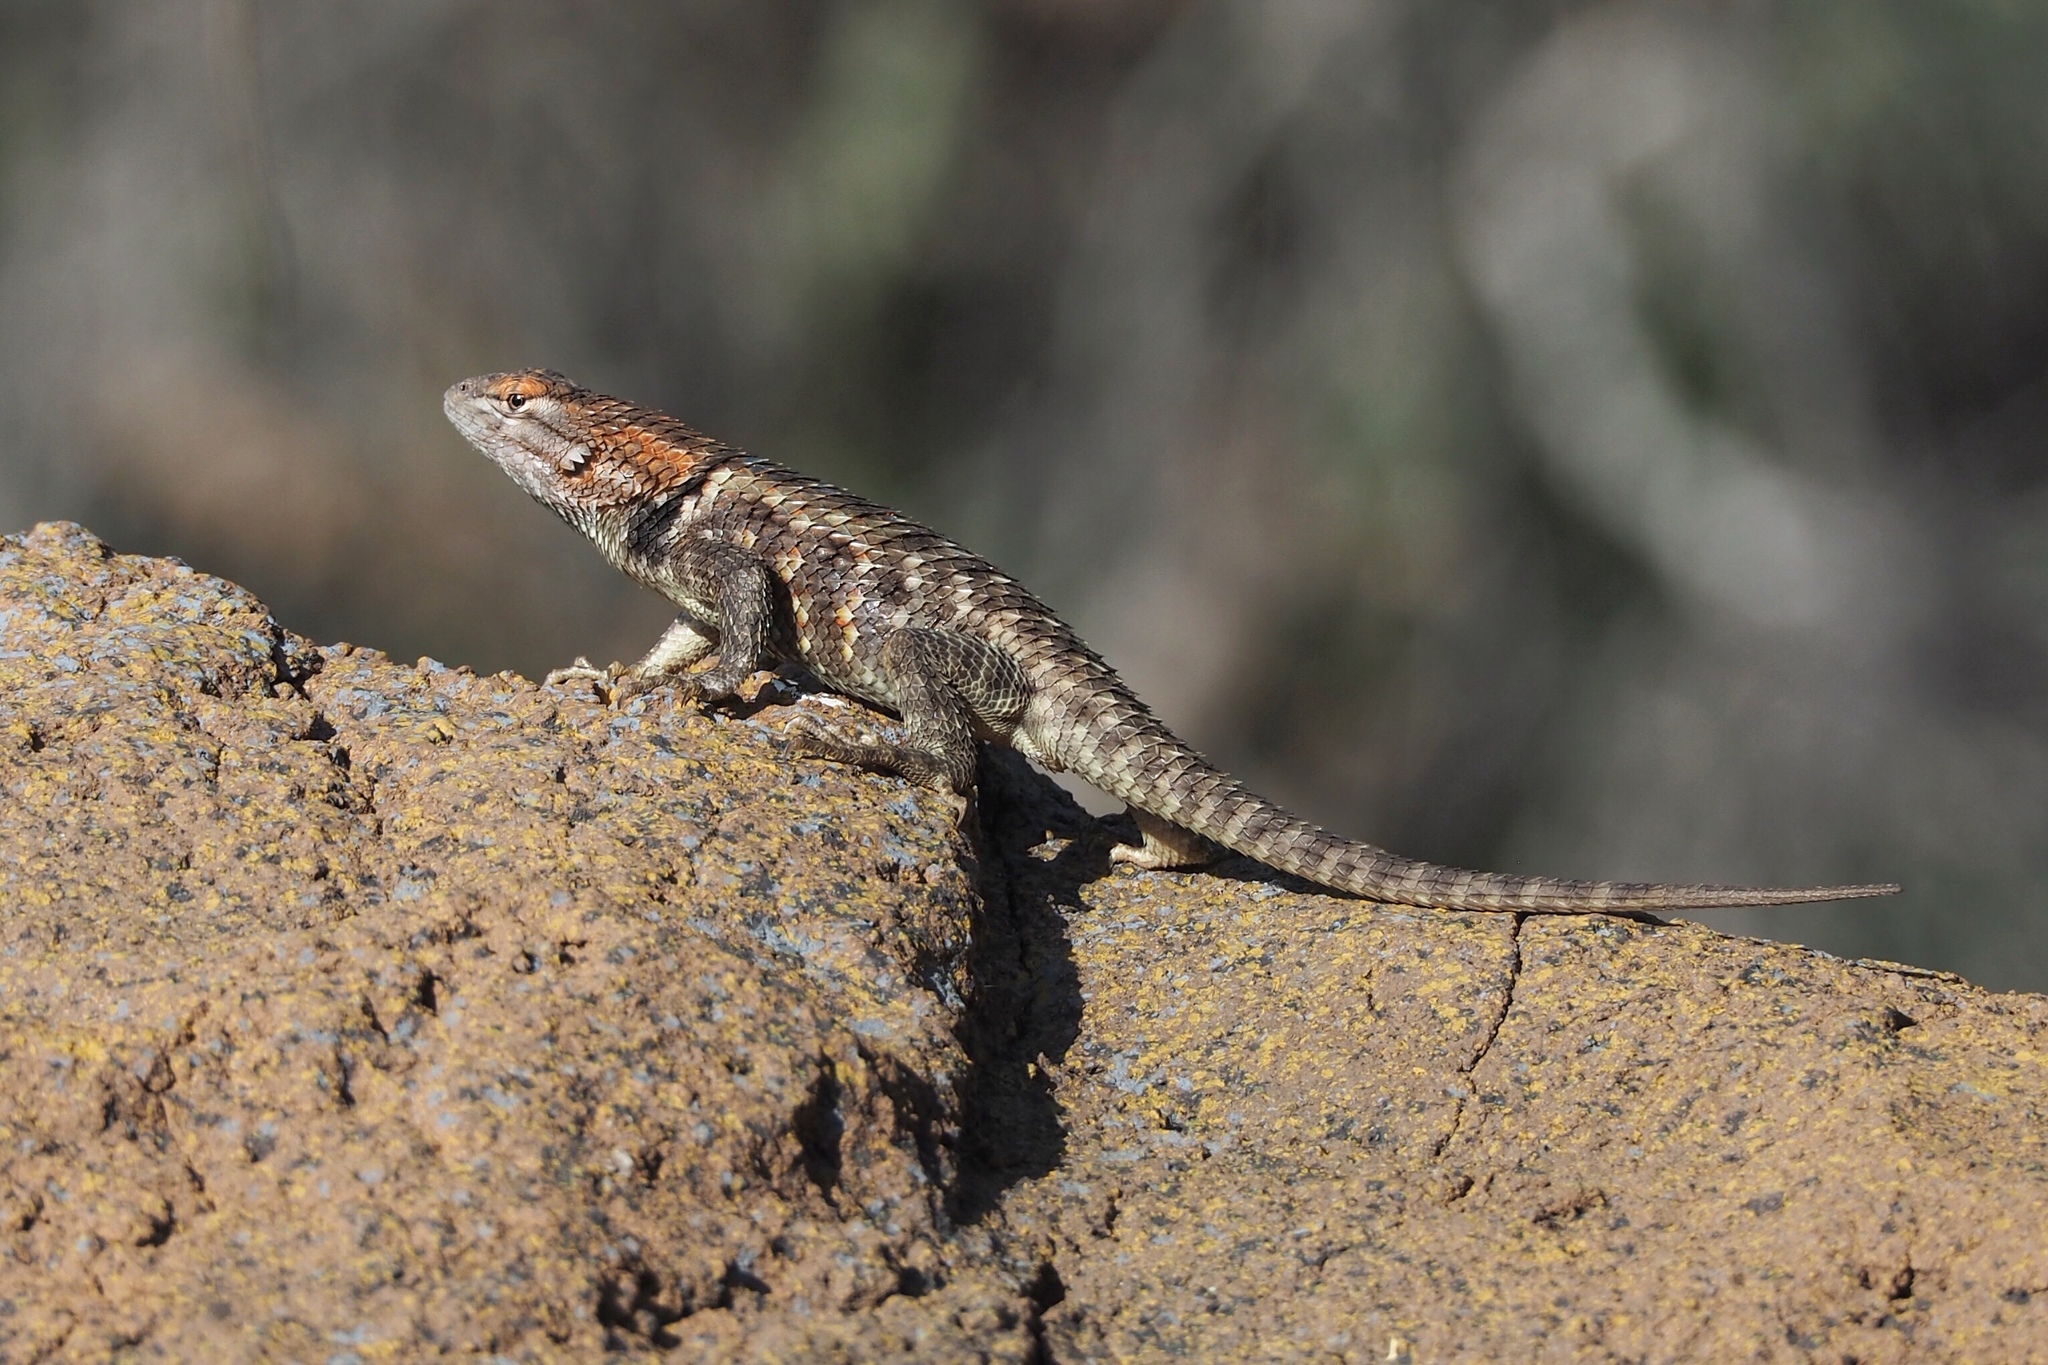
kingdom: Animalia
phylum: Chordata
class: Squamata
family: Phrynosomatidae
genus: Sceloporus
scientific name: Sceloporus magister
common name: Desert spiny lizard
